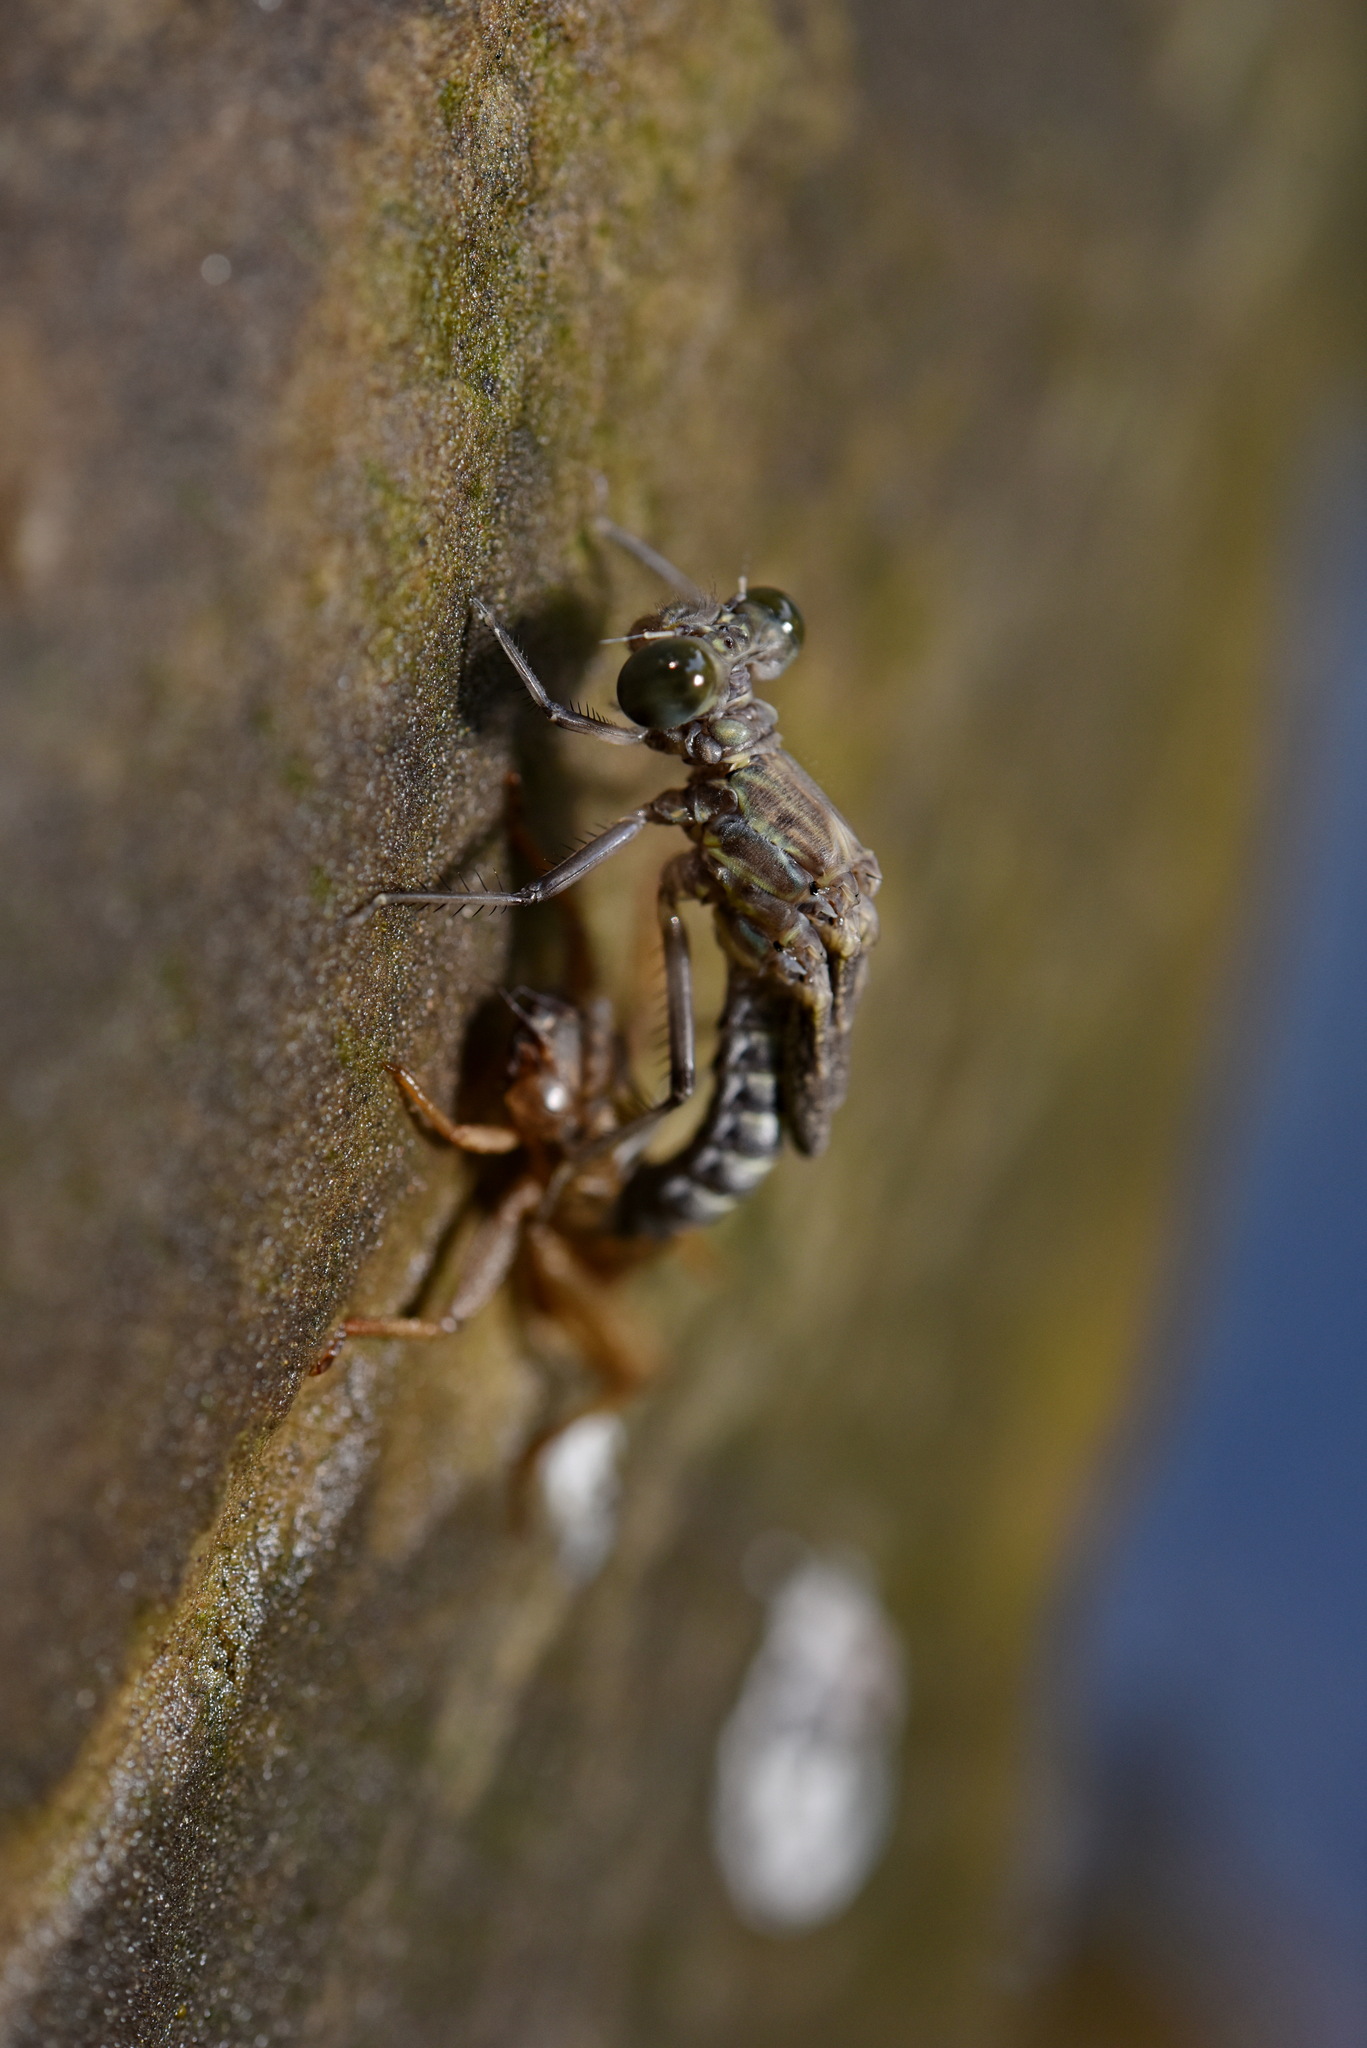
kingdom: Animalia
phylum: Arthropoda
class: Insecta
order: Odonata
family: Euphaeidae
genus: Euphaea
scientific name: Euphaea formosa
